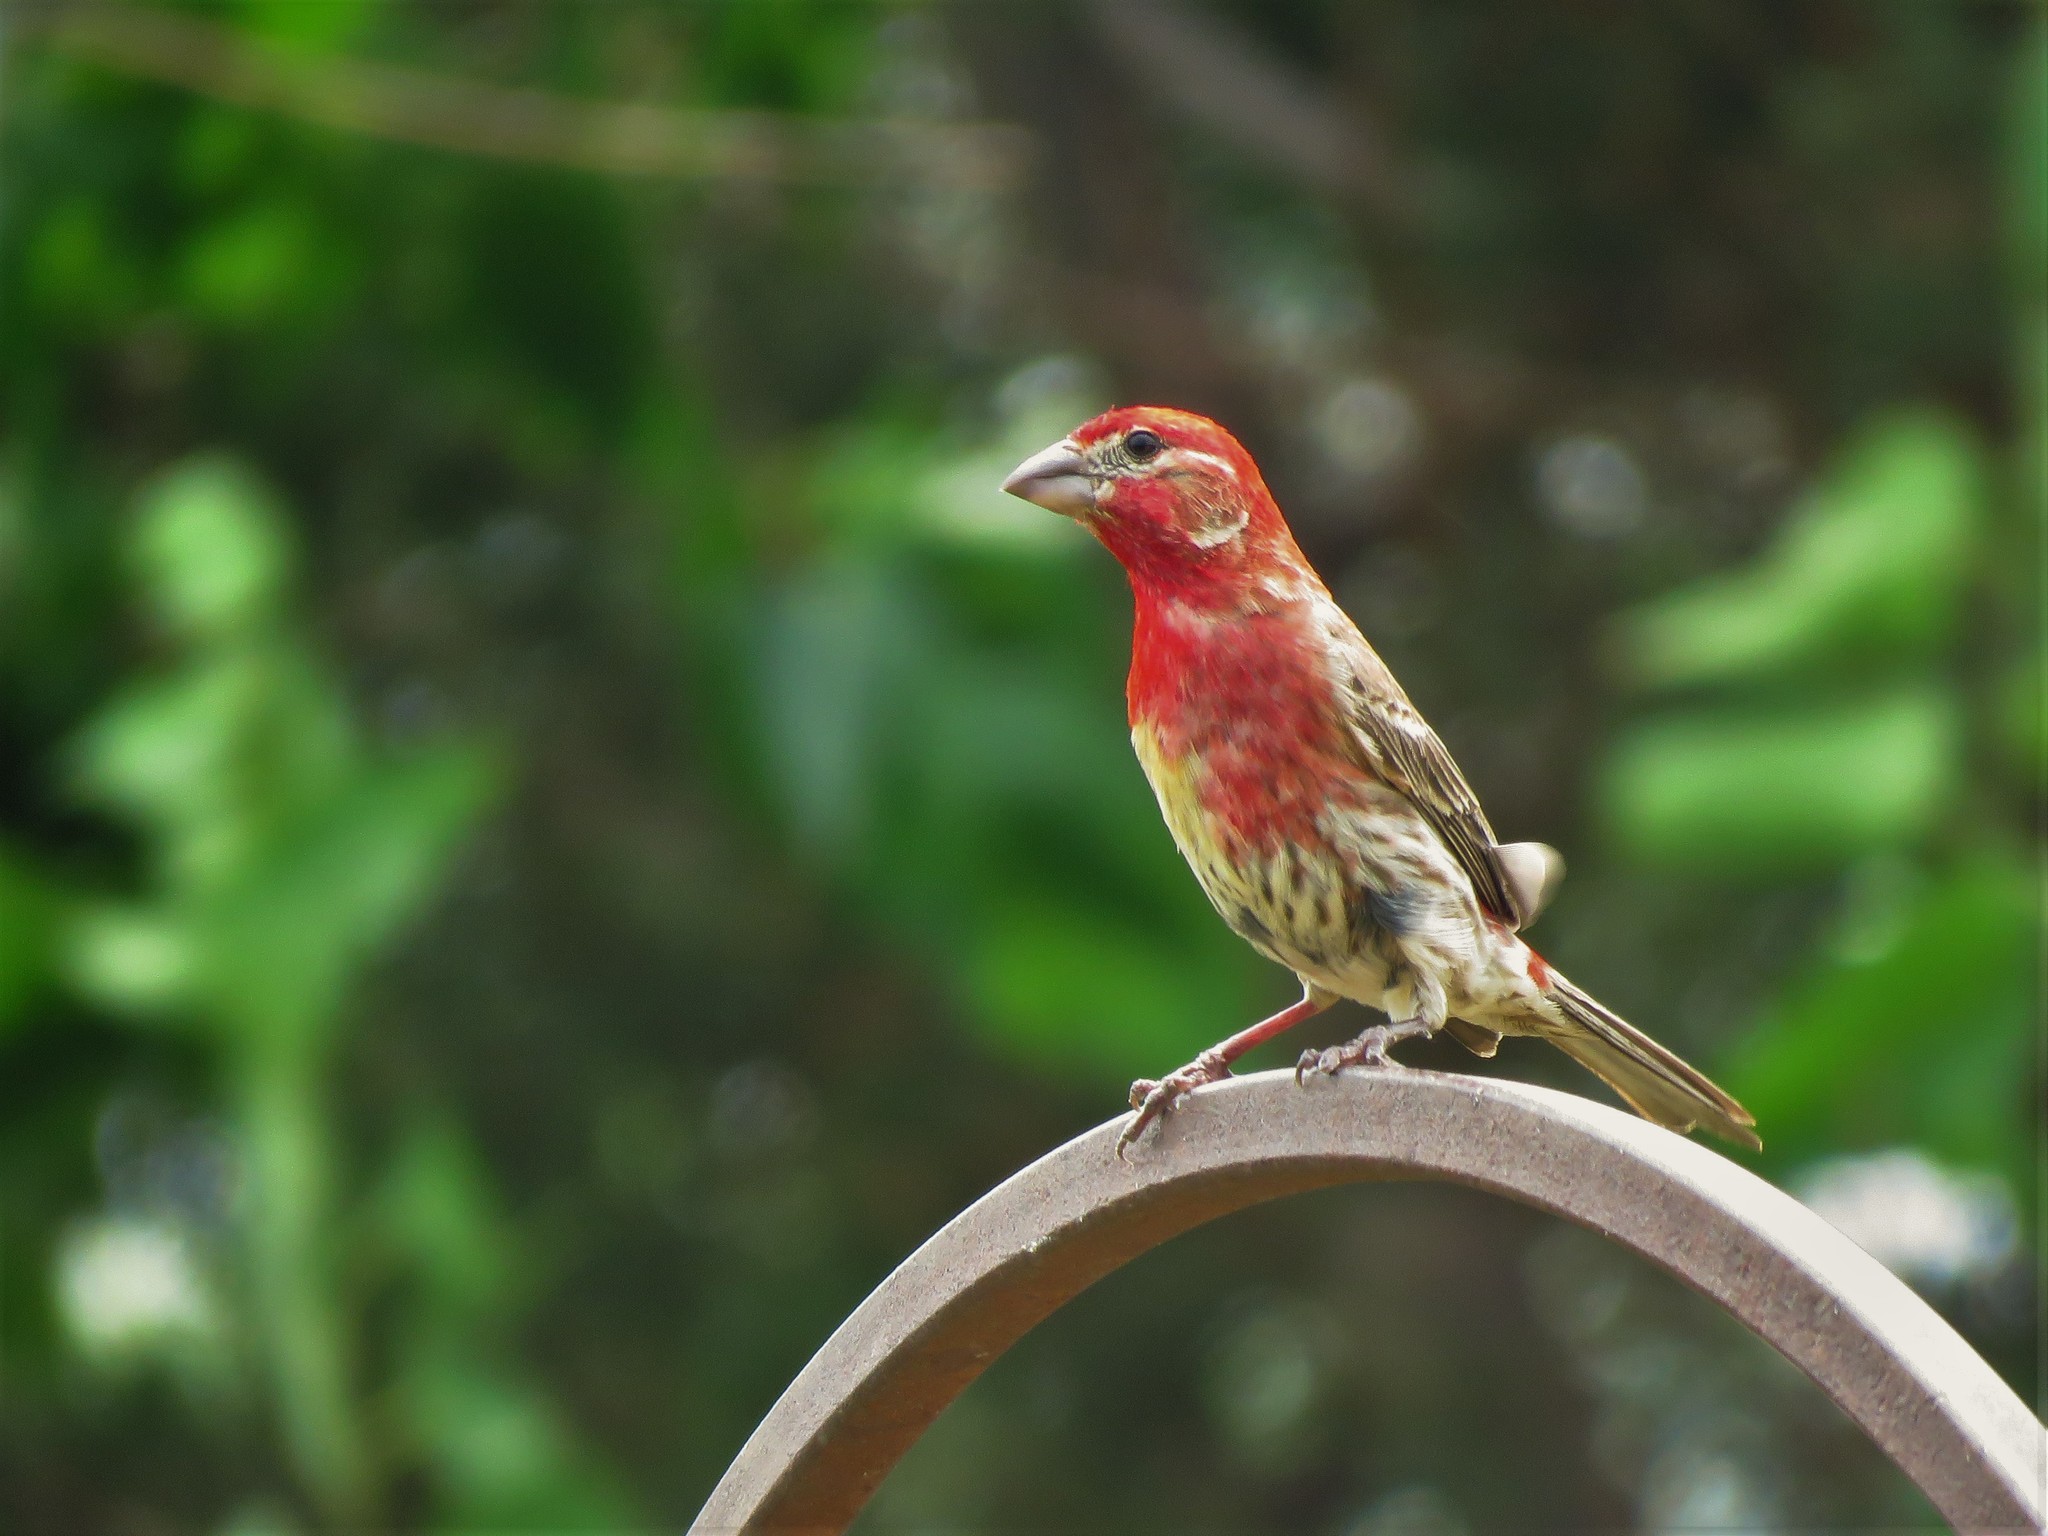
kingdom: Animalia
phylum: Chordata
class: Aves
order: Passeriformes
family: Fringillidae
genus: Haemorhous
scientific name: Haemorhous mexicanus
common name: House finch
